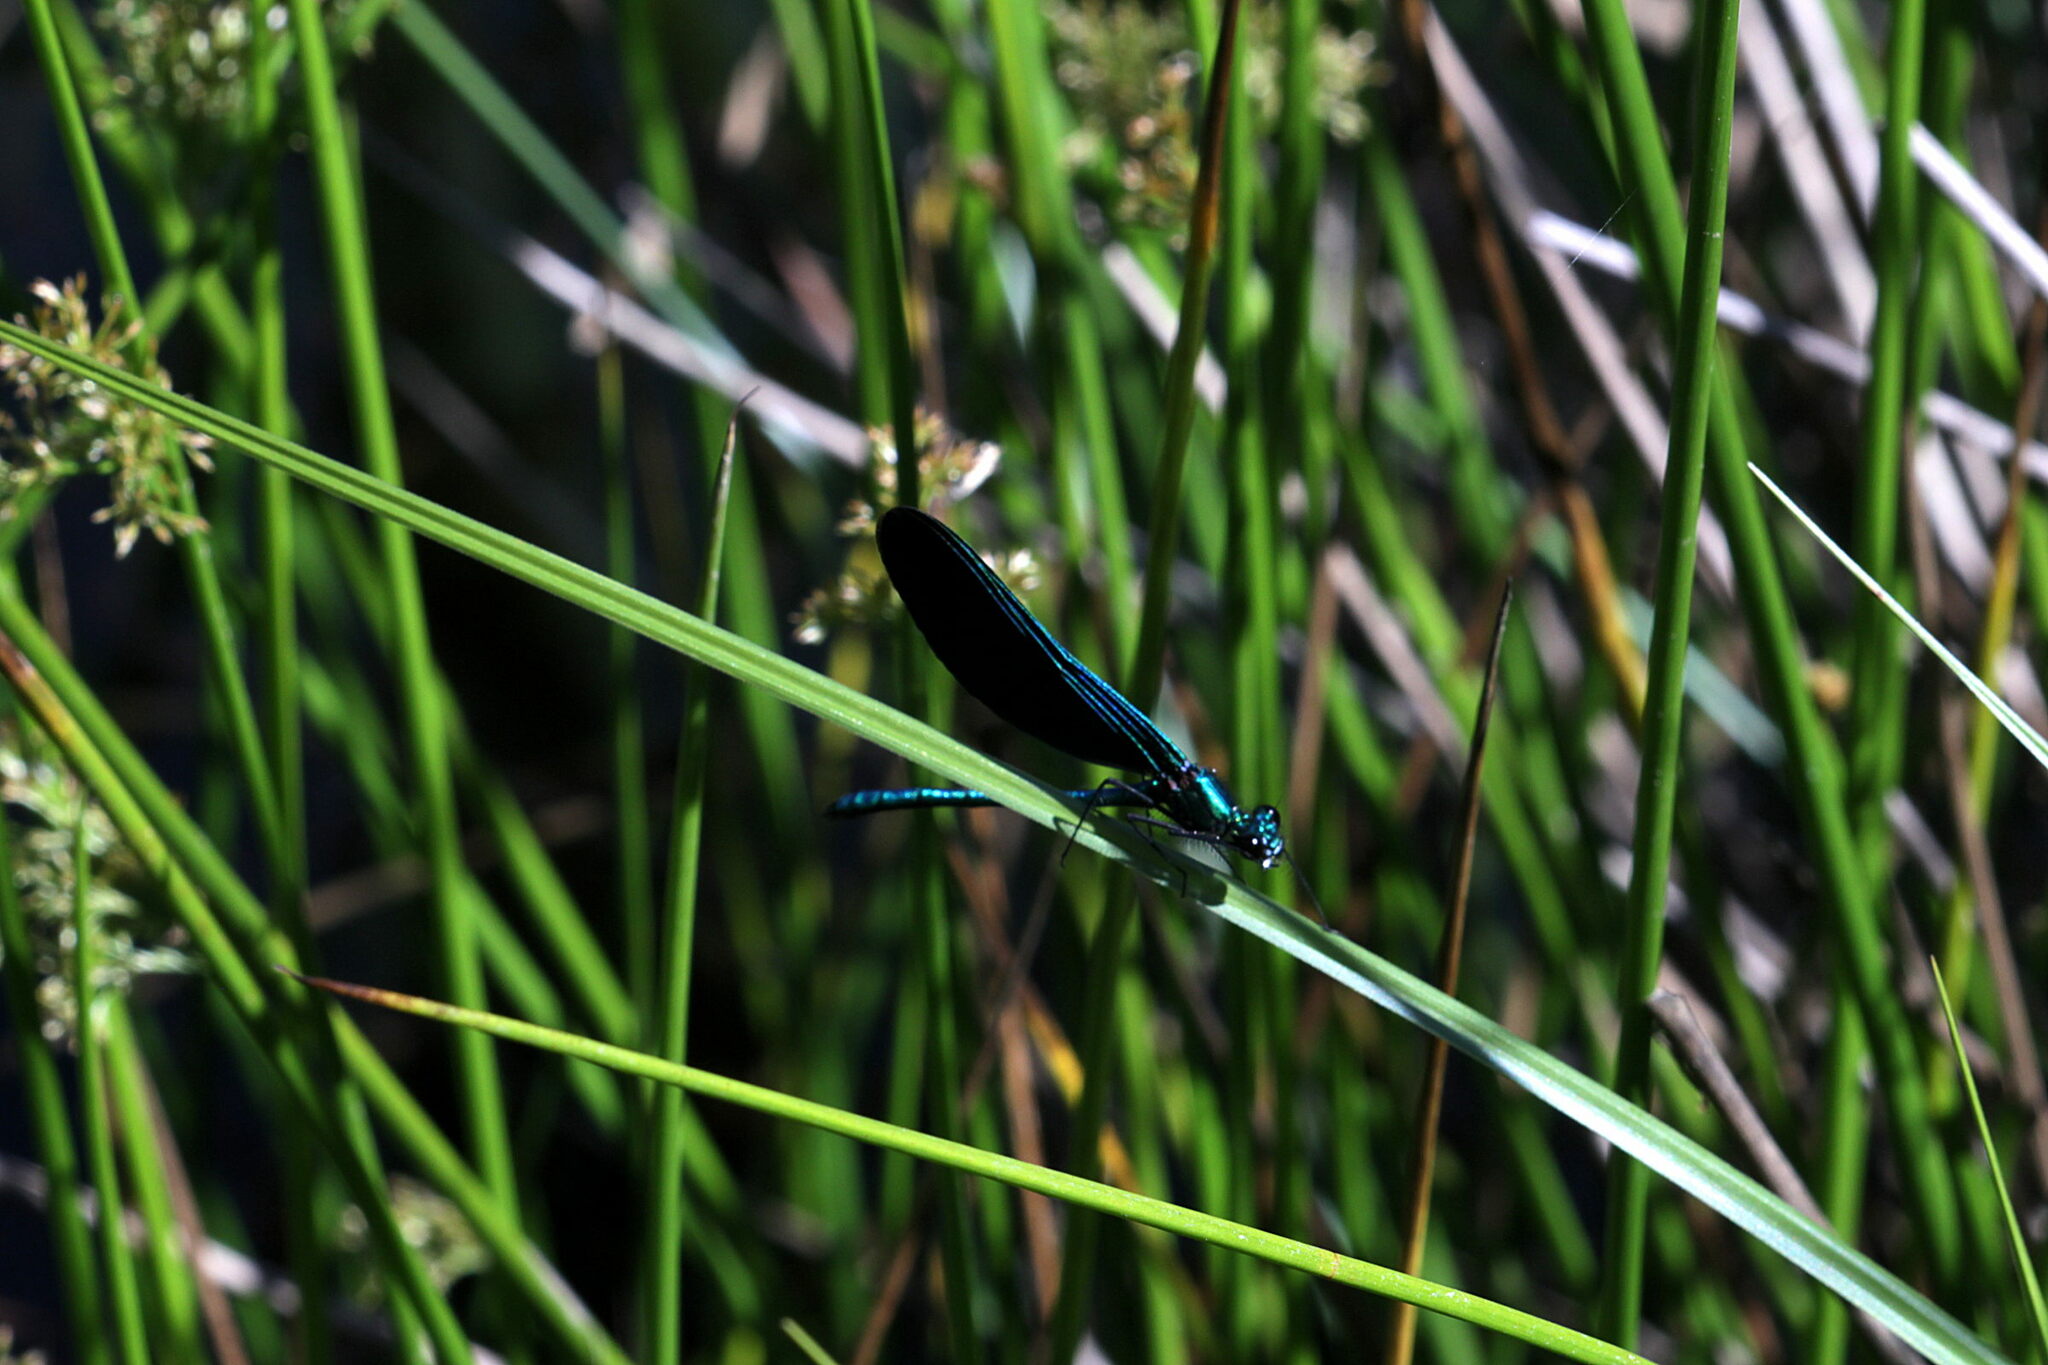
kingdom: Animalia
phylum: Arthropoda
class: Insecta
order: Odonata
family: Calopterygidae
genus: Calopteryx
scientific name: Calopteryx virgo
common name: Beautiful demoiselle
